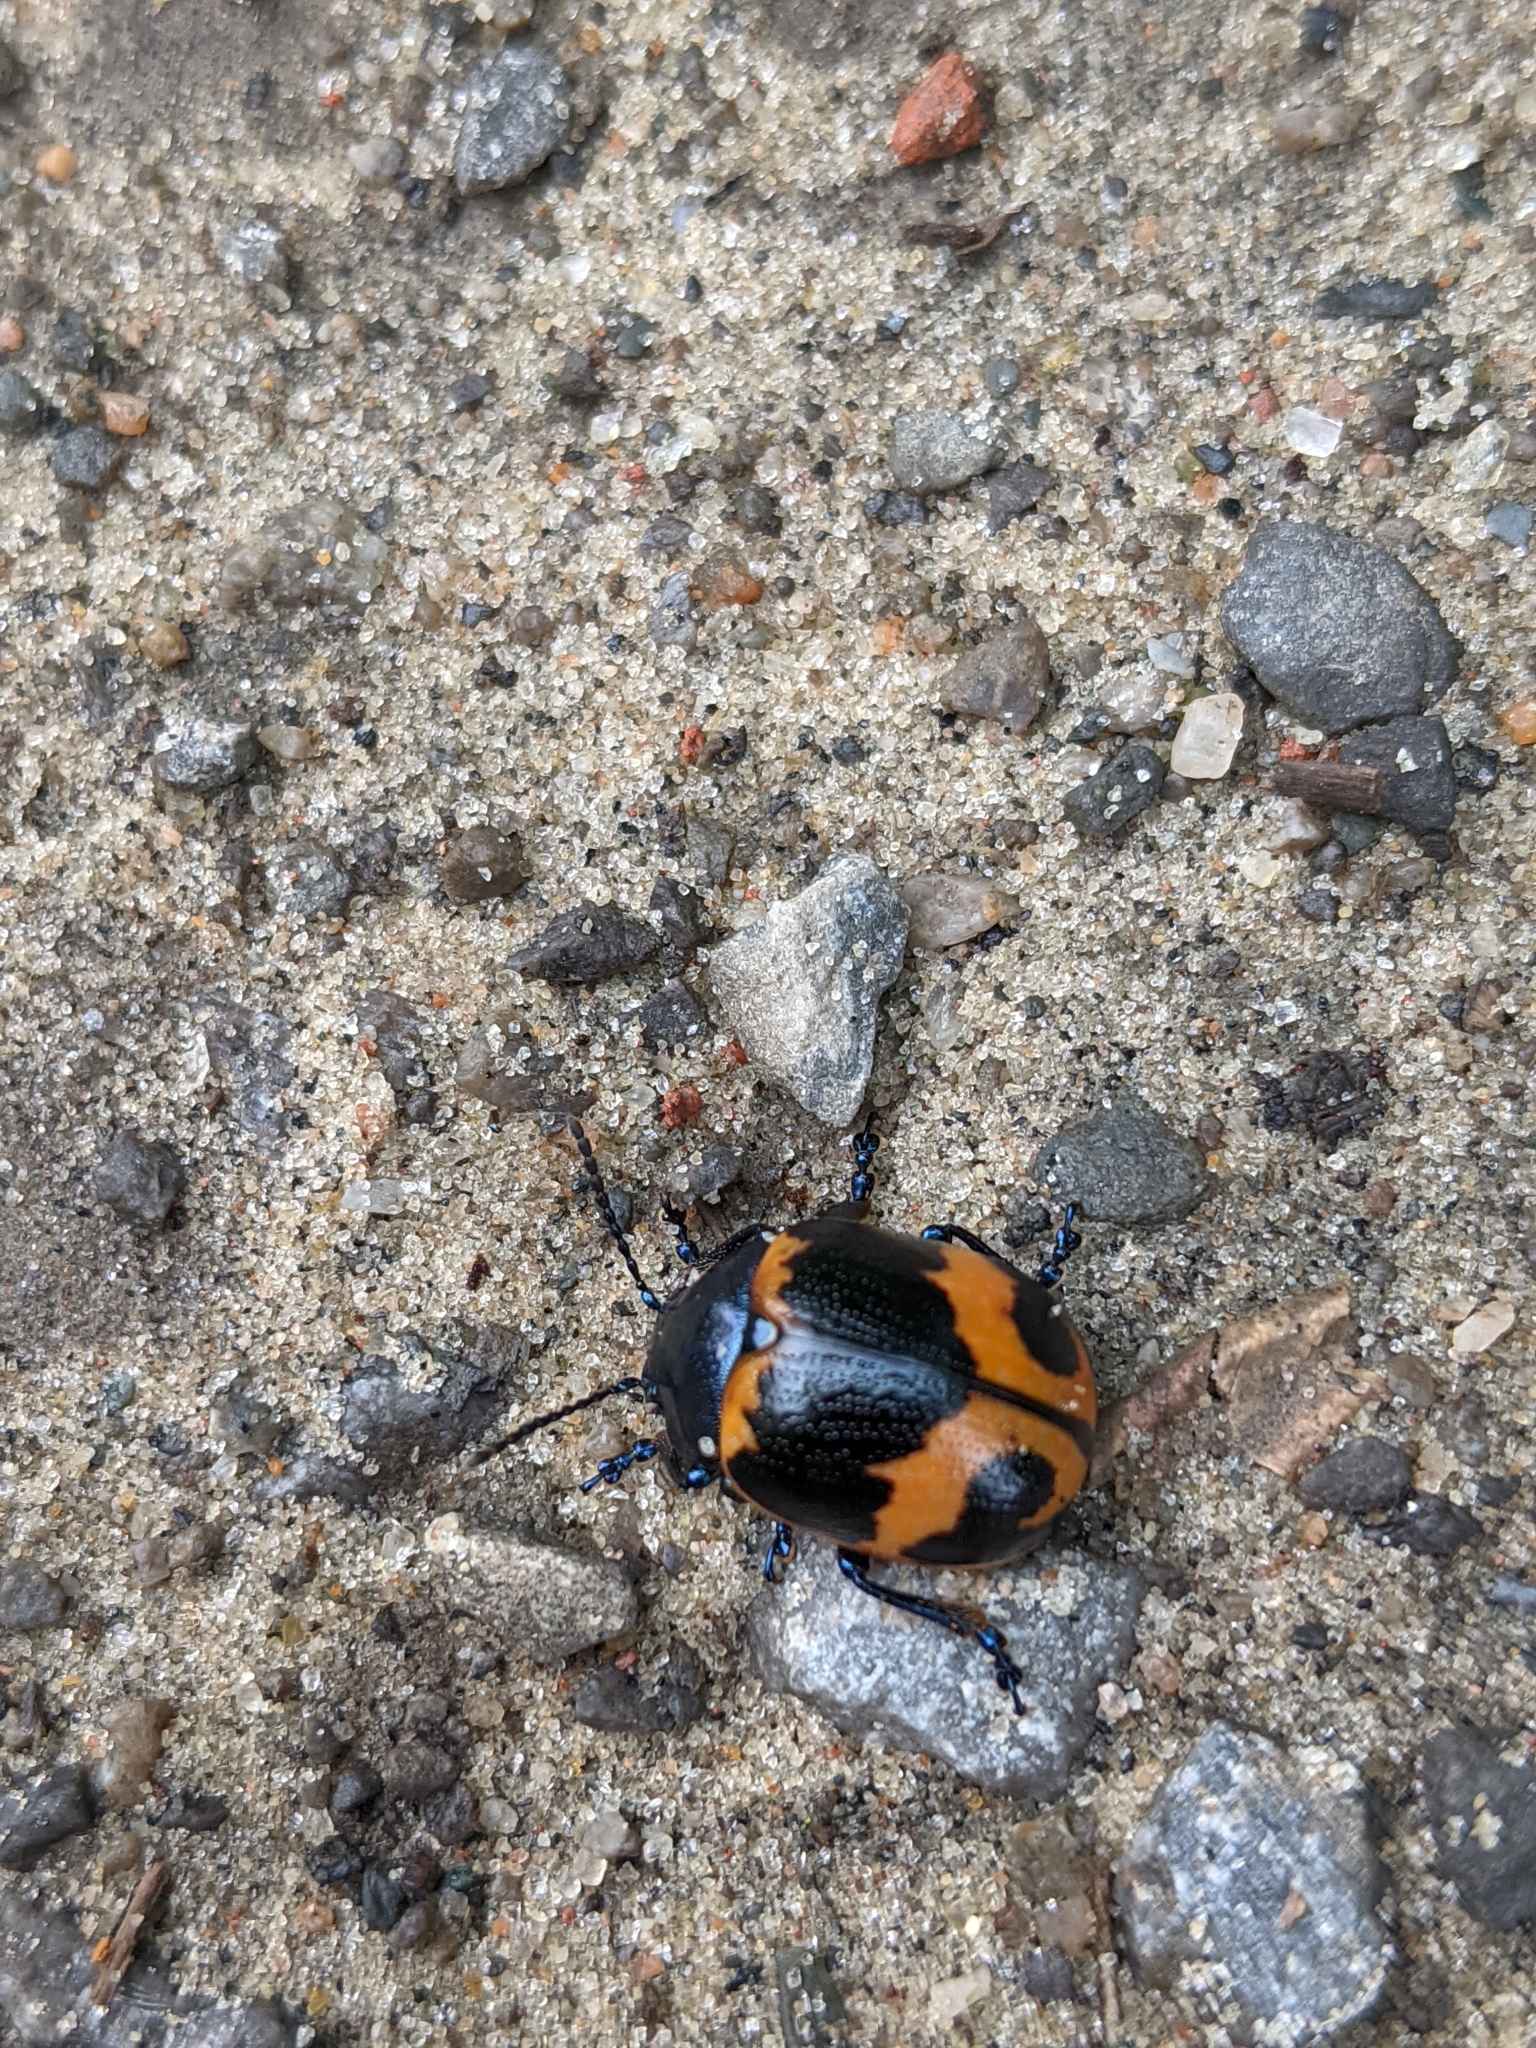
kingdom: Animalia
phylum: Arthropoda
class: Insecta
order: Coleoptera
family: Chrysomelidae
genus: Labidomera
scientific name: Labidomera clivicollis
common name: Swamp milkweed leaf beetle
